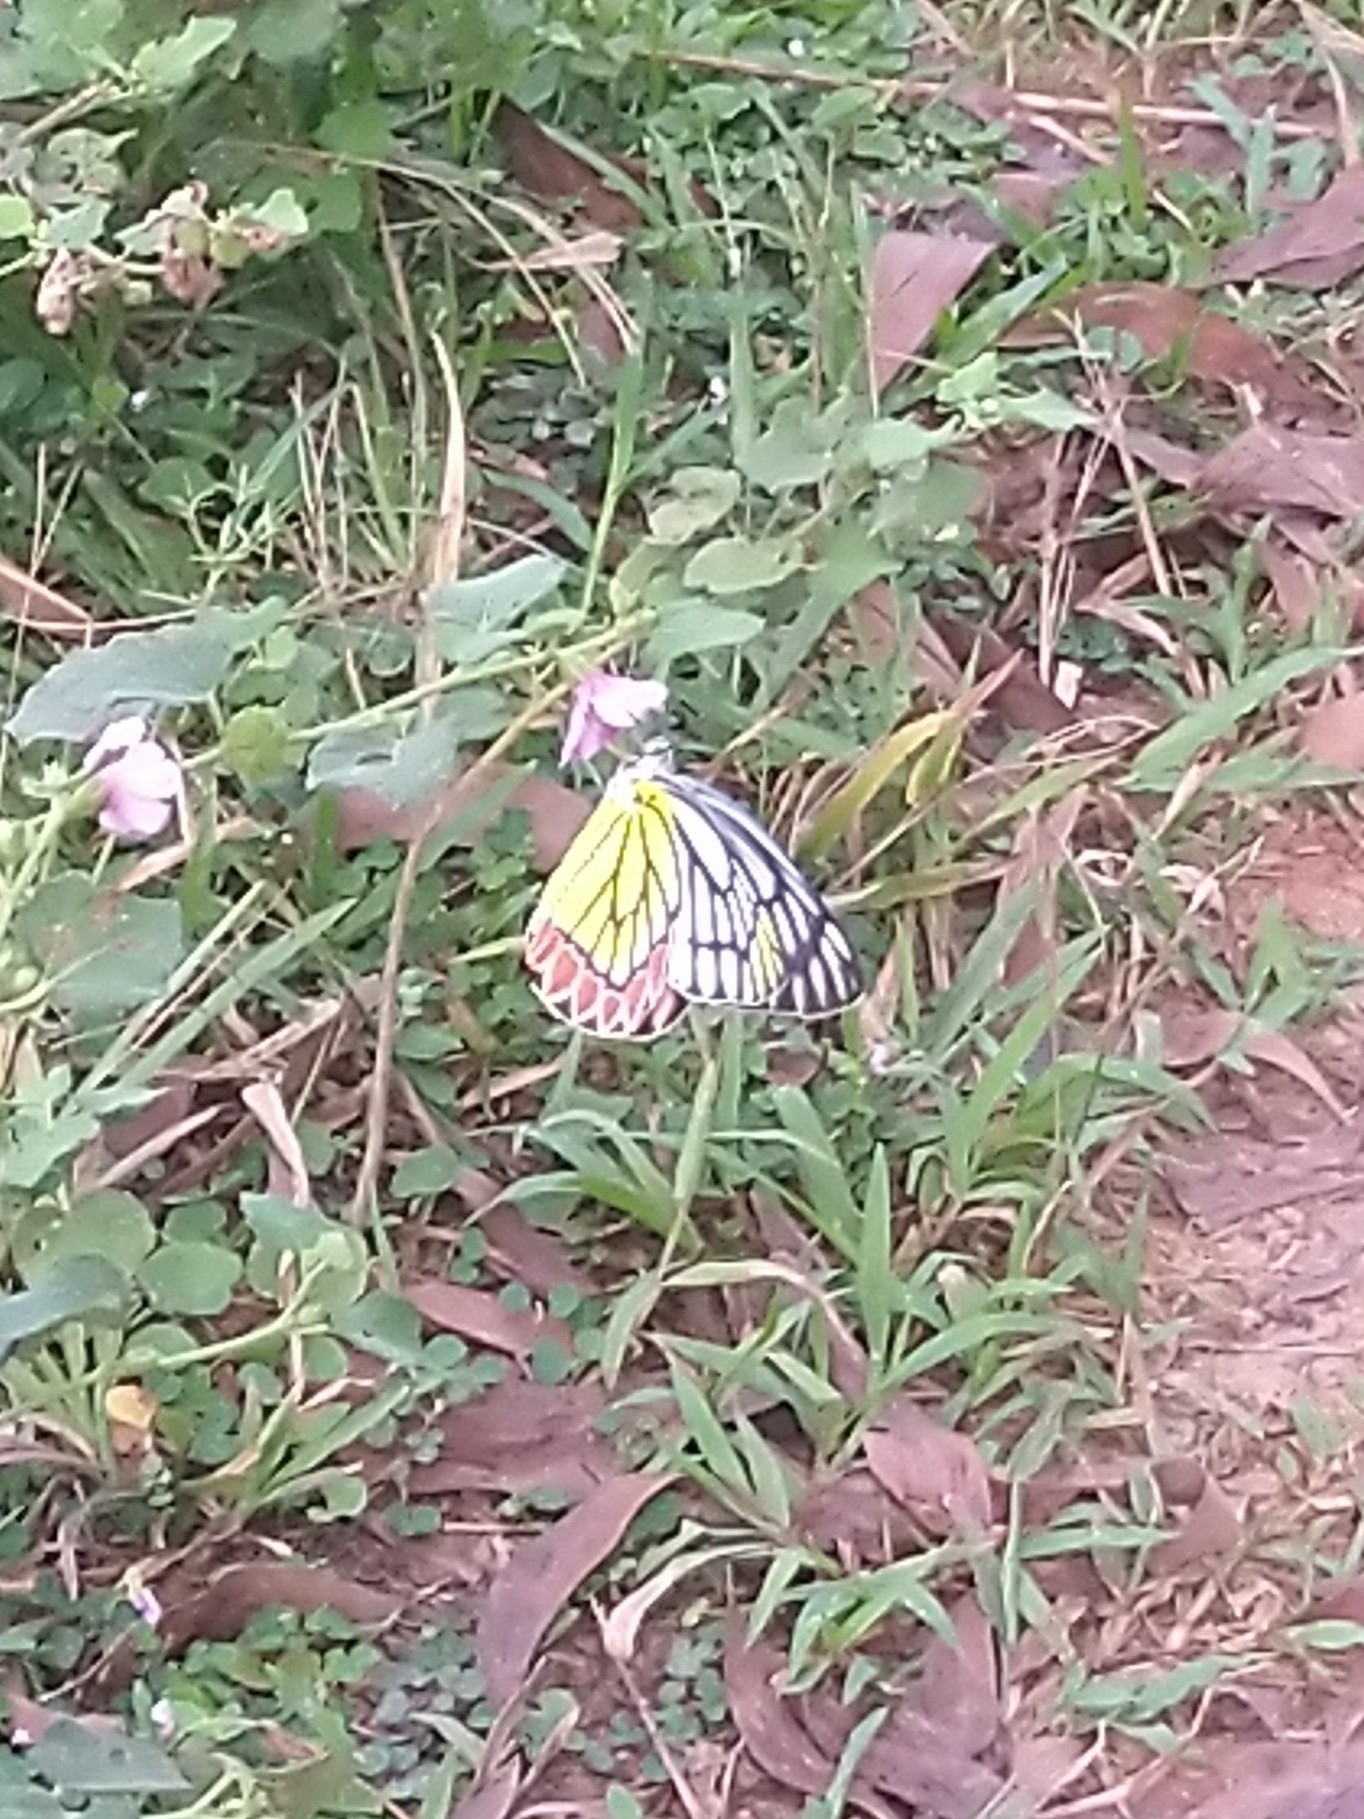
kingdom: Animalia
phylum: Arthropoda
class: Insecta
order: Lepidoptera
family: Pieridae
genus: Delias
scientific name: Delias eucharis
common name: Common jezebel
